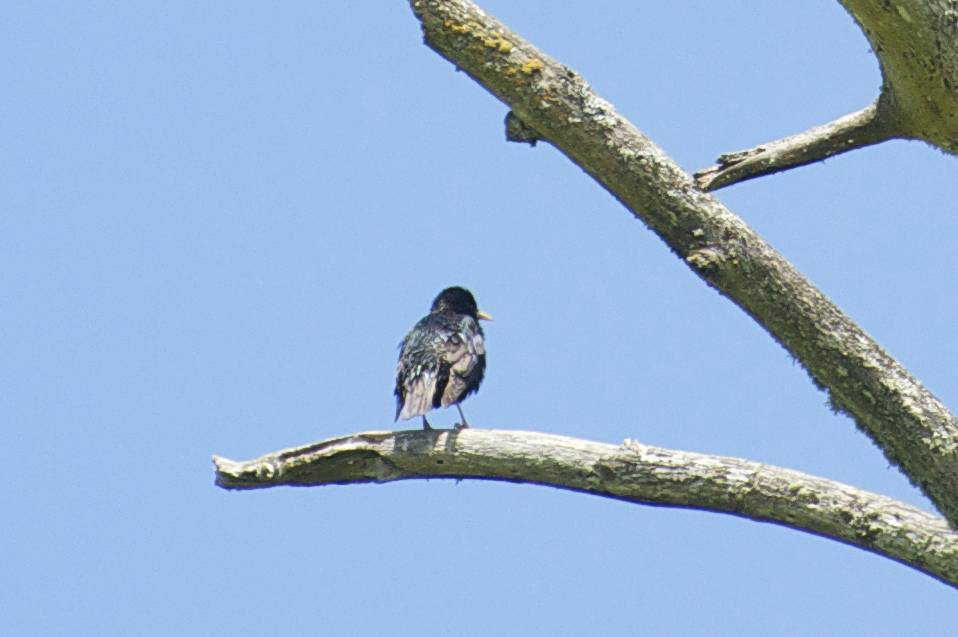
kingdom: Animalia
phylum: Chordata
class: Aves
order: Passeriformes
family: Sturnidae
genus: Sturnus
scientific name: Sturnus vulgaris
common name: Common starling
